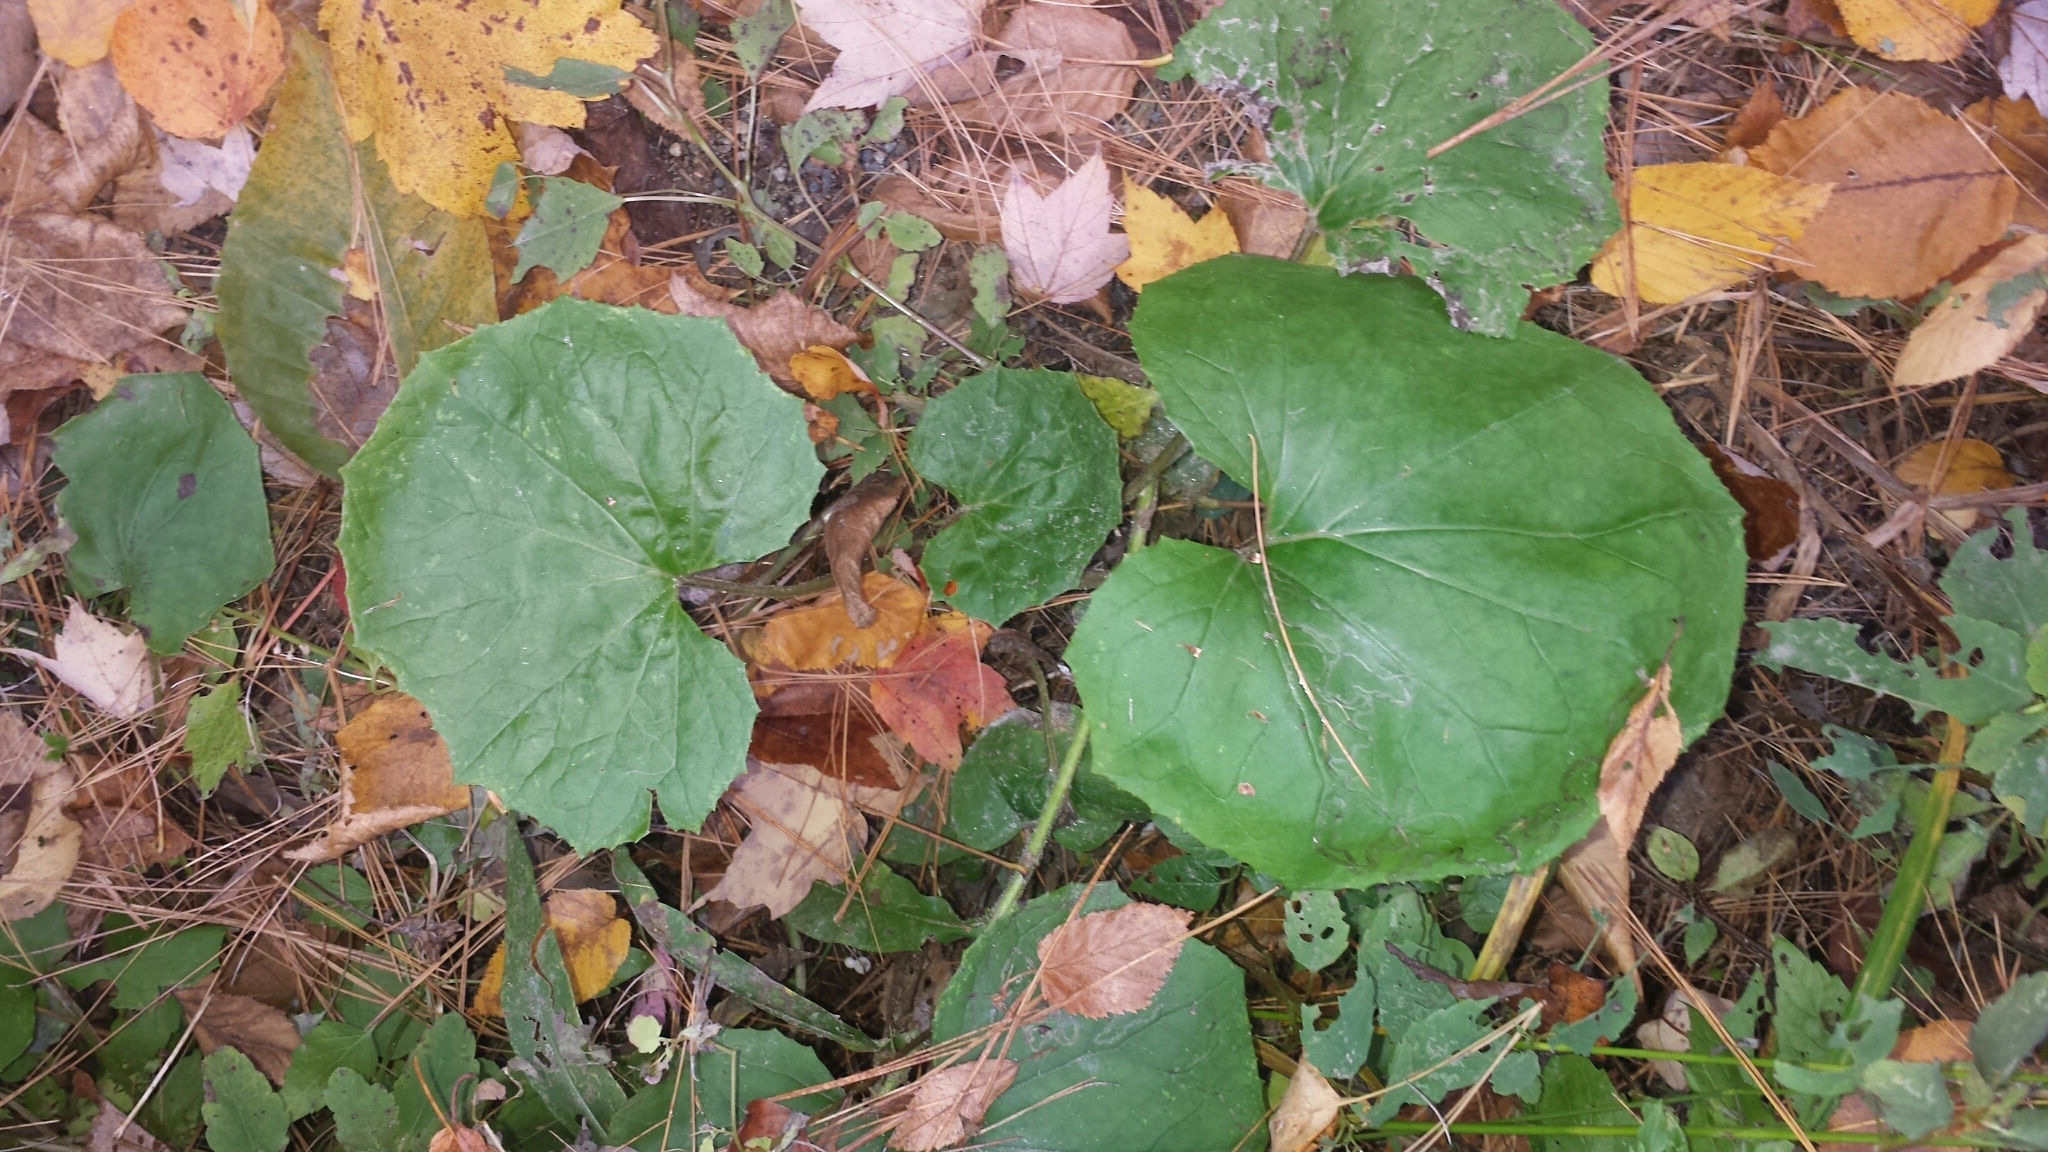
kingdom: Plantae
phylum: Tracheophyta
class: Magnoliopsida
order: Asterales
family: Asteraceae
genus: Tussilago
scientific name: Tussilago farfara
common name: Coltsfoot
